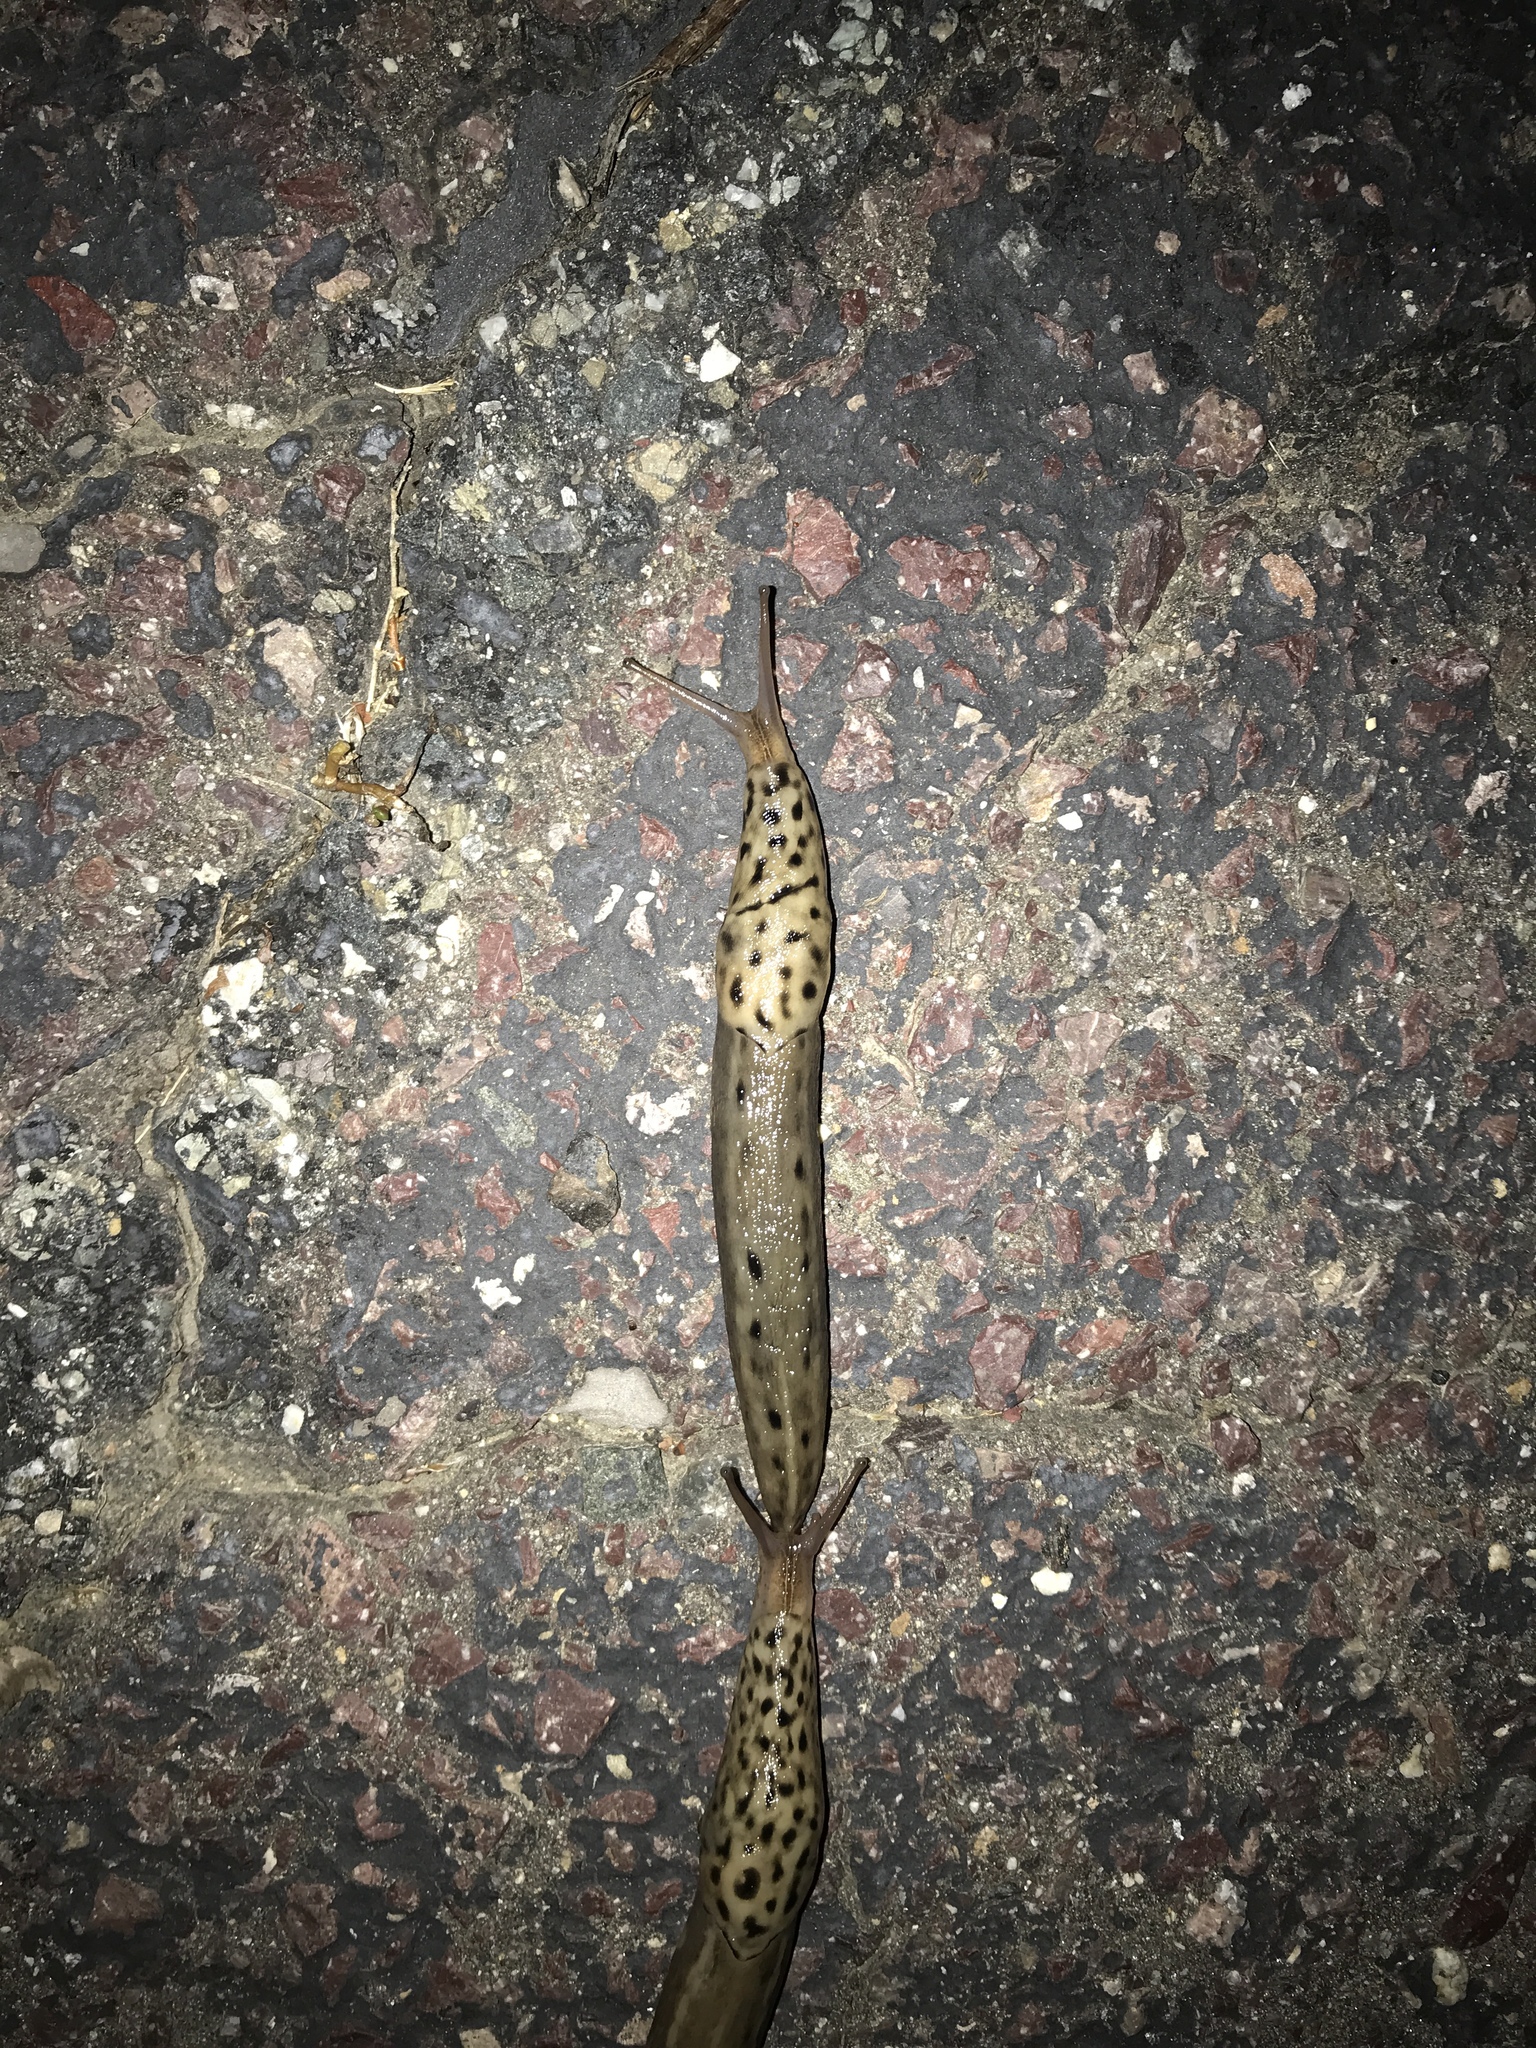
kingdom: Animalia
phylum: Mollusca
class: Gastropoda
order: Stylommatophora
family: Limacidae
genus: Limax
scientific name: Limax maximus
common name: Great grey slug
